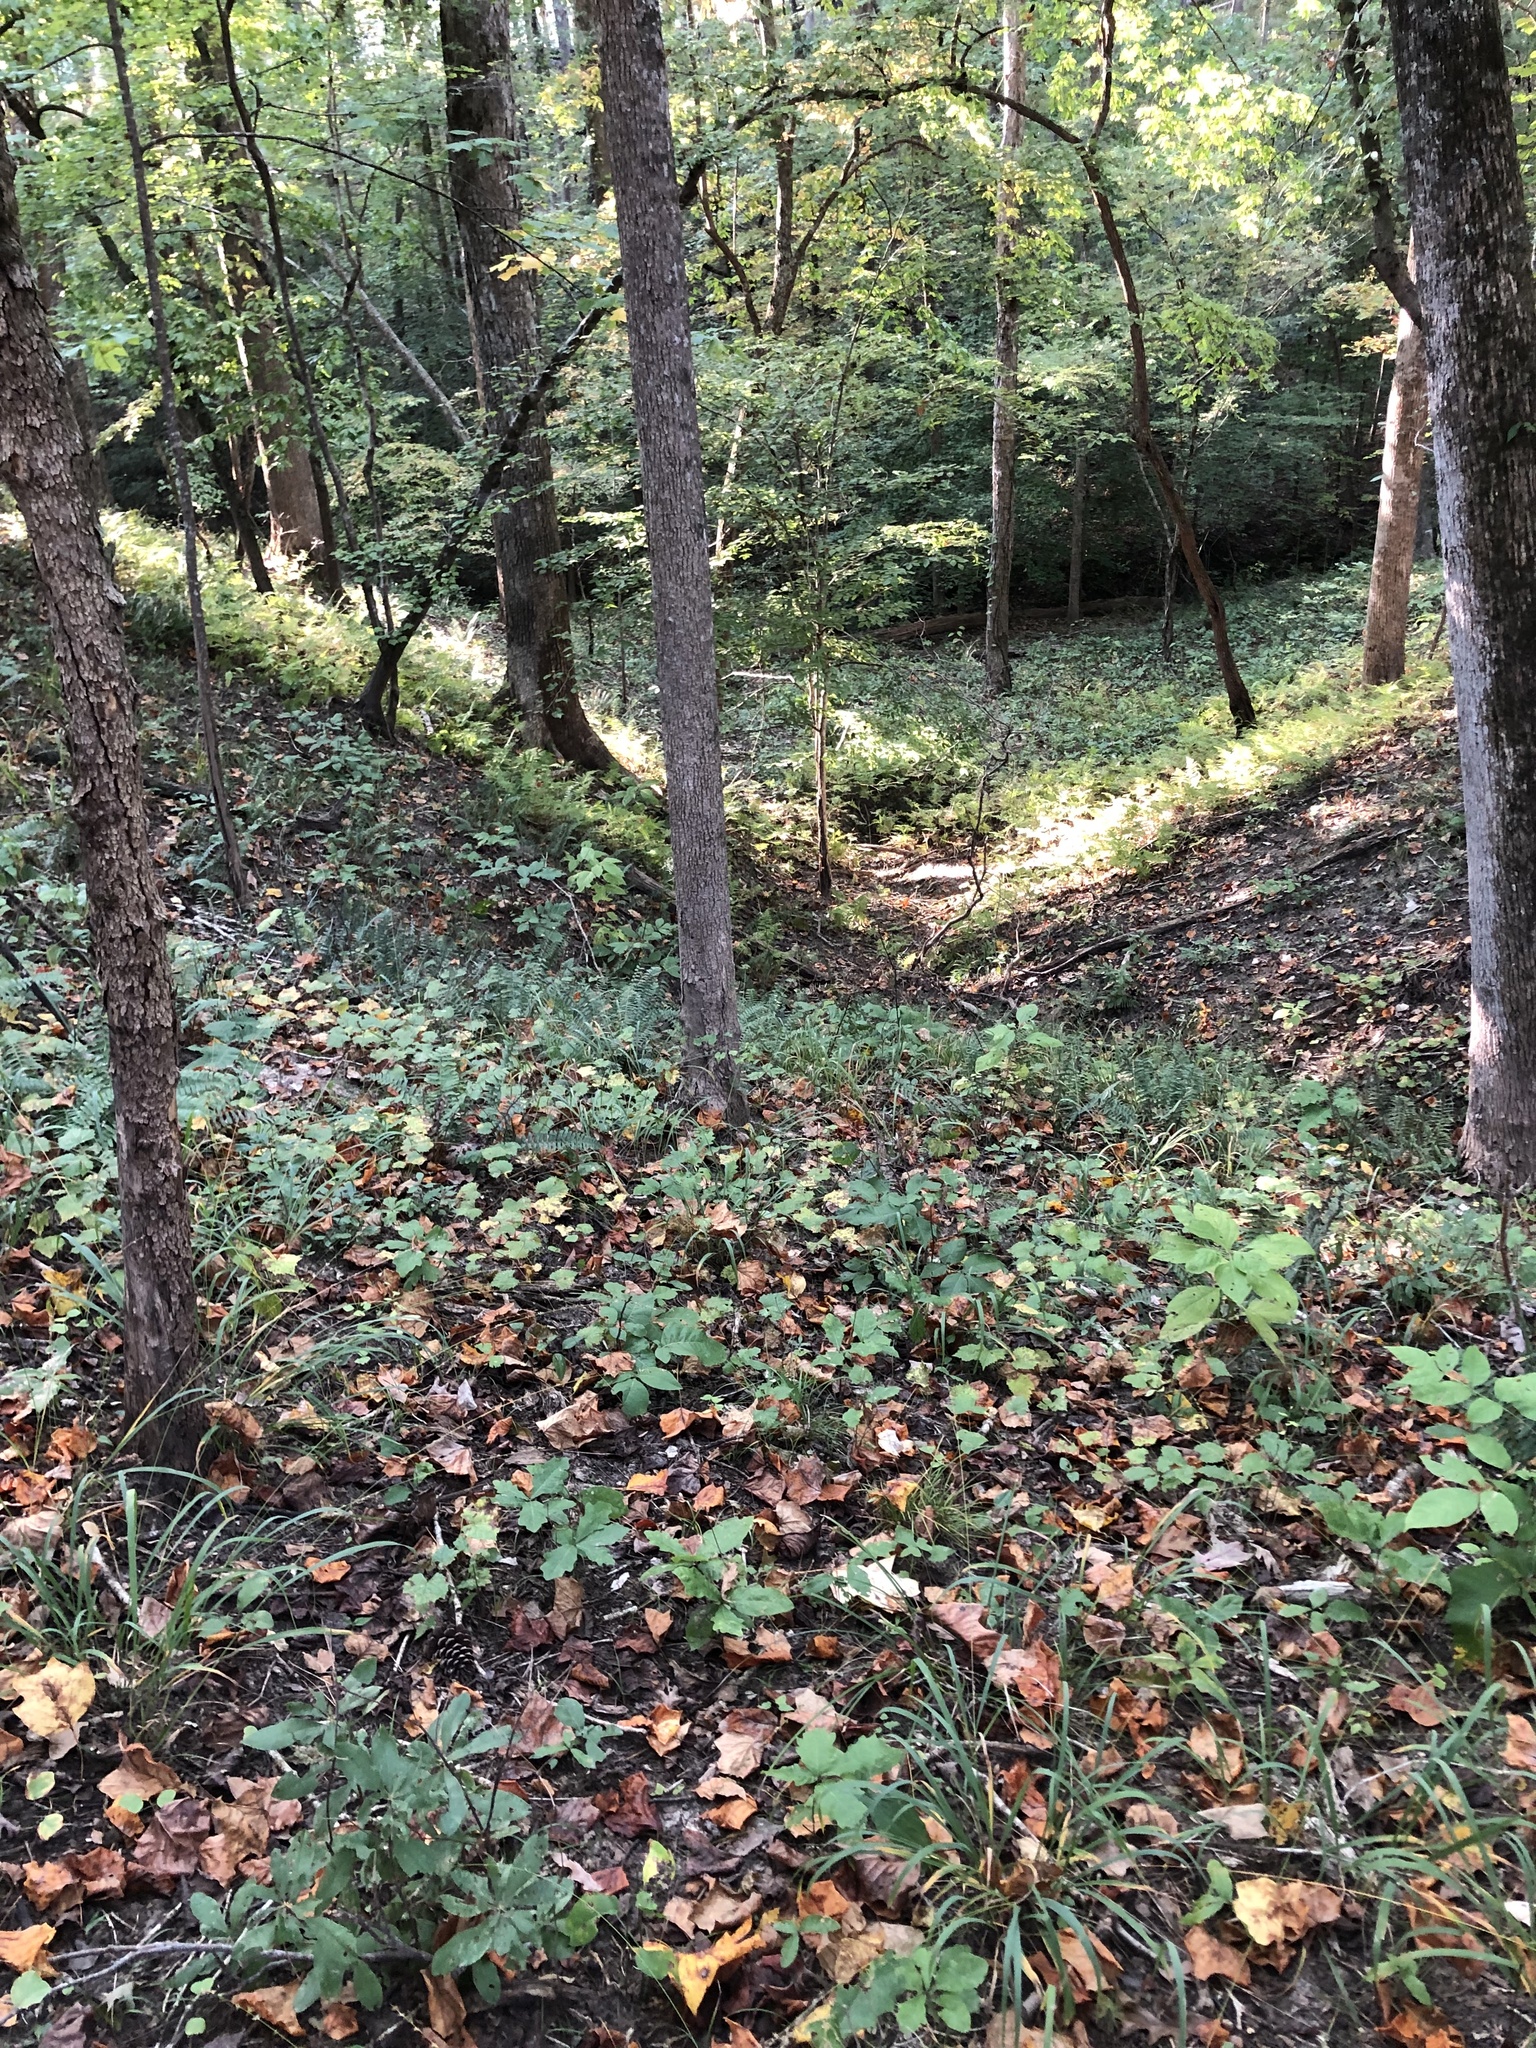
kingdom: Plantae
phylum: Tracheophyta
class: Liliopsida
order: Poales
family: Poaceae
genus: Chasmanthium
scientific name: Chasmanthium laxum
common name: Slender chasmanthium
